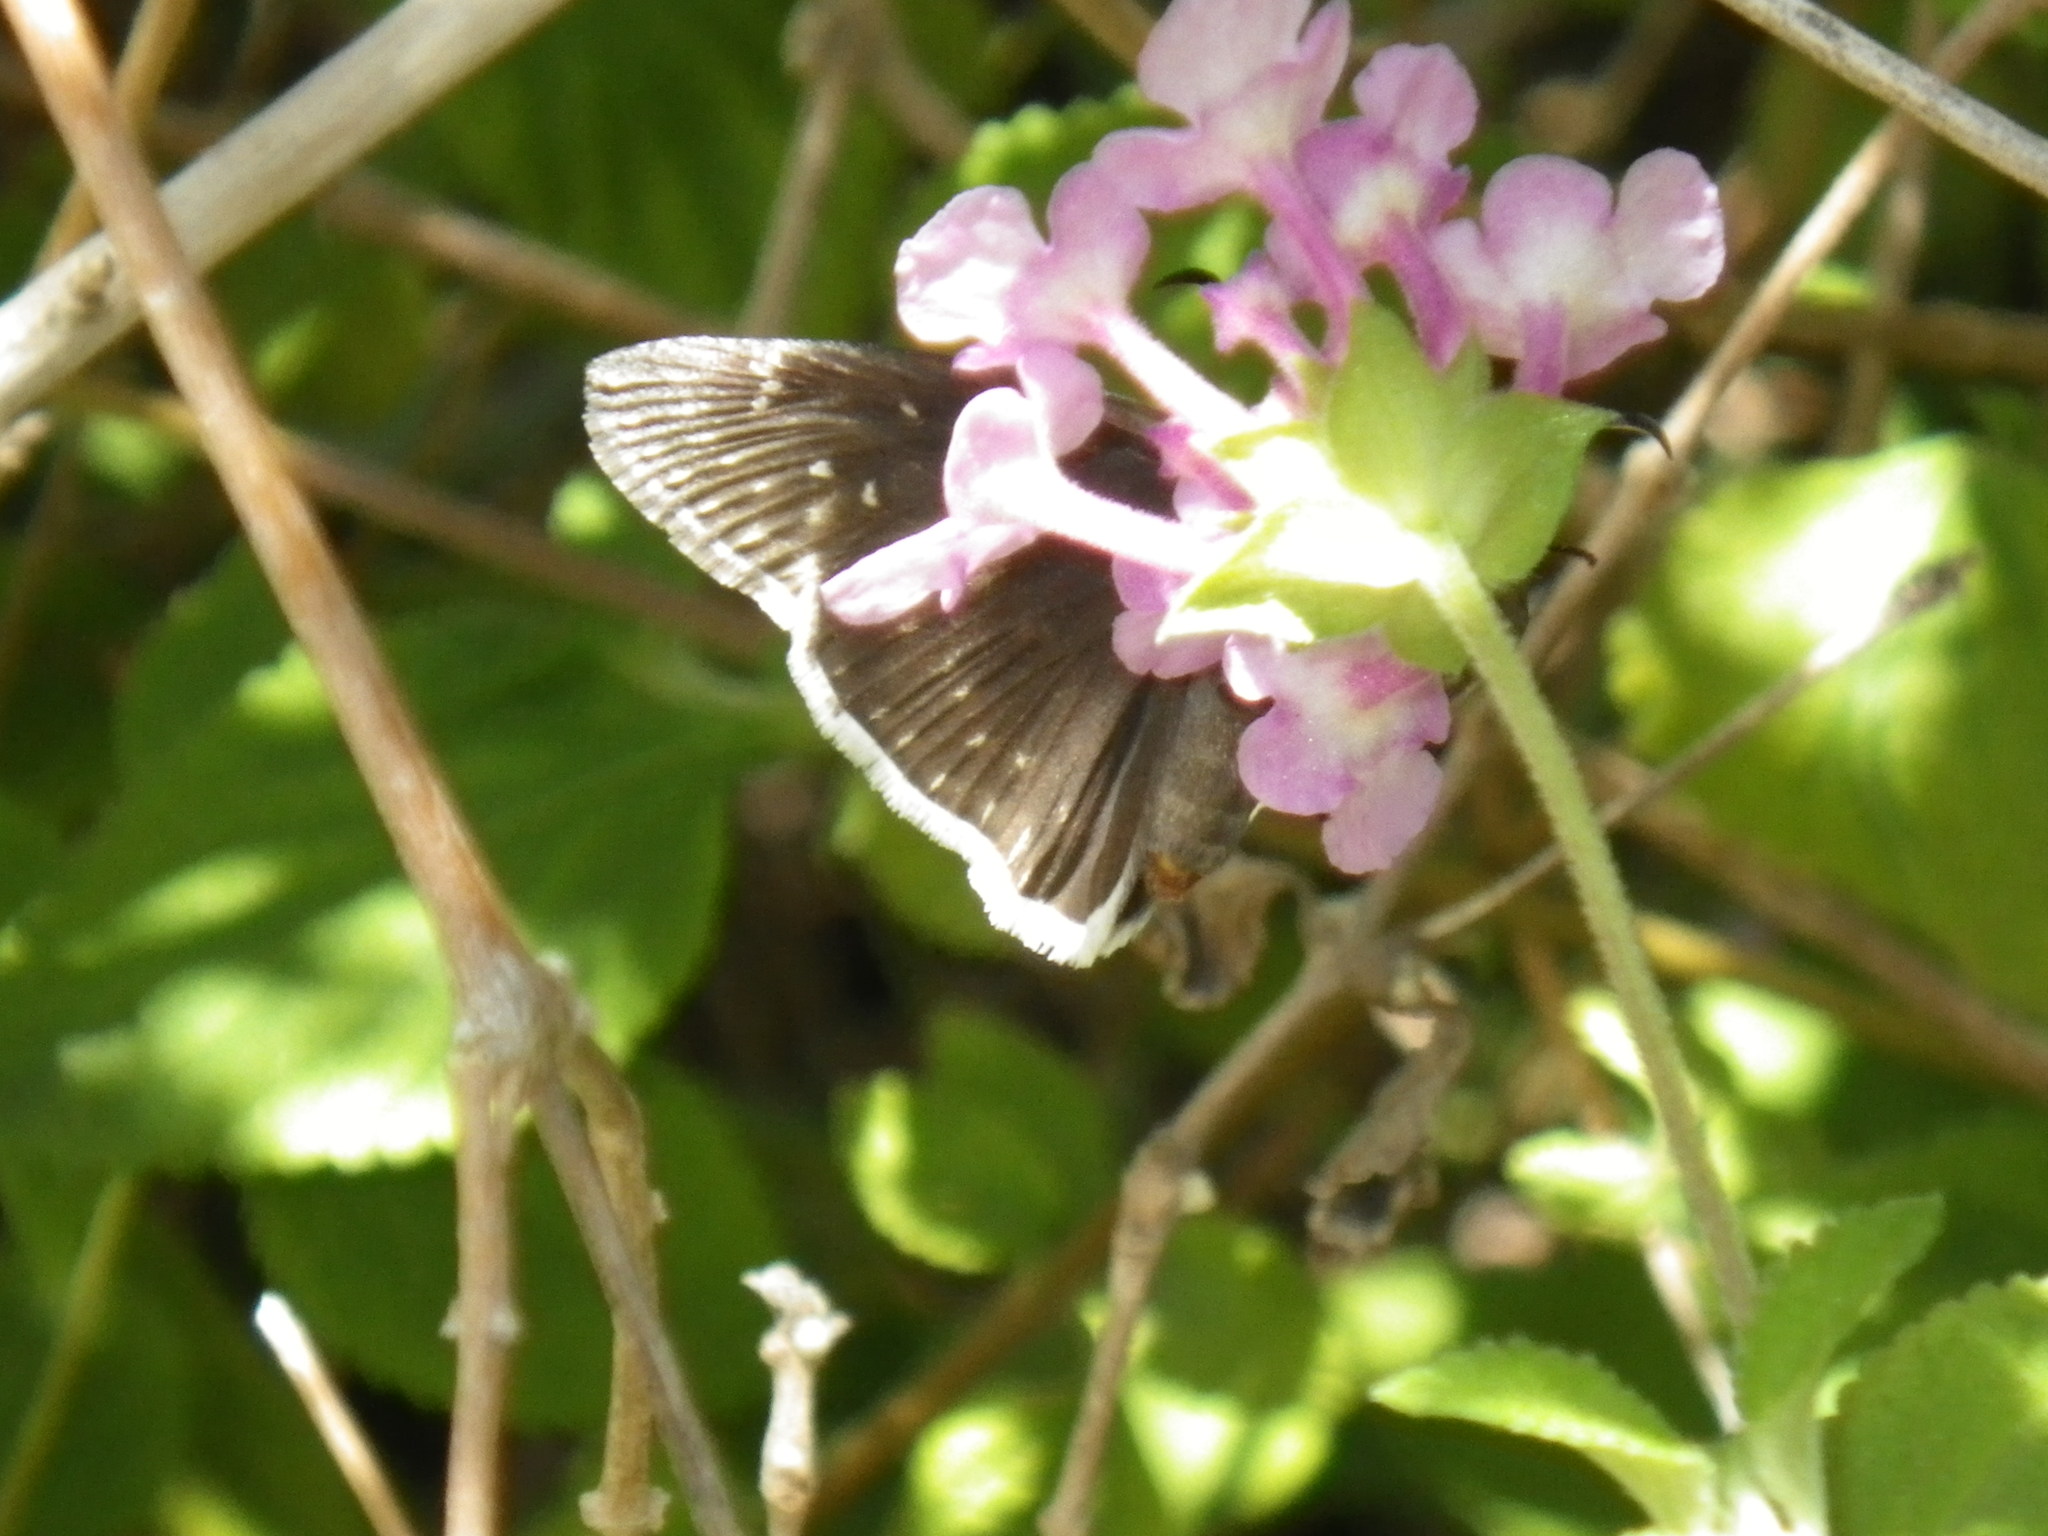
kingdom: Animalia
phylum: Arthropoda
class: Insecta
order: Lepidoptera
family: Hesperiidae
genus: Erynnis
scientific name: Erynnis tristis
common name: Mournful duskywing
